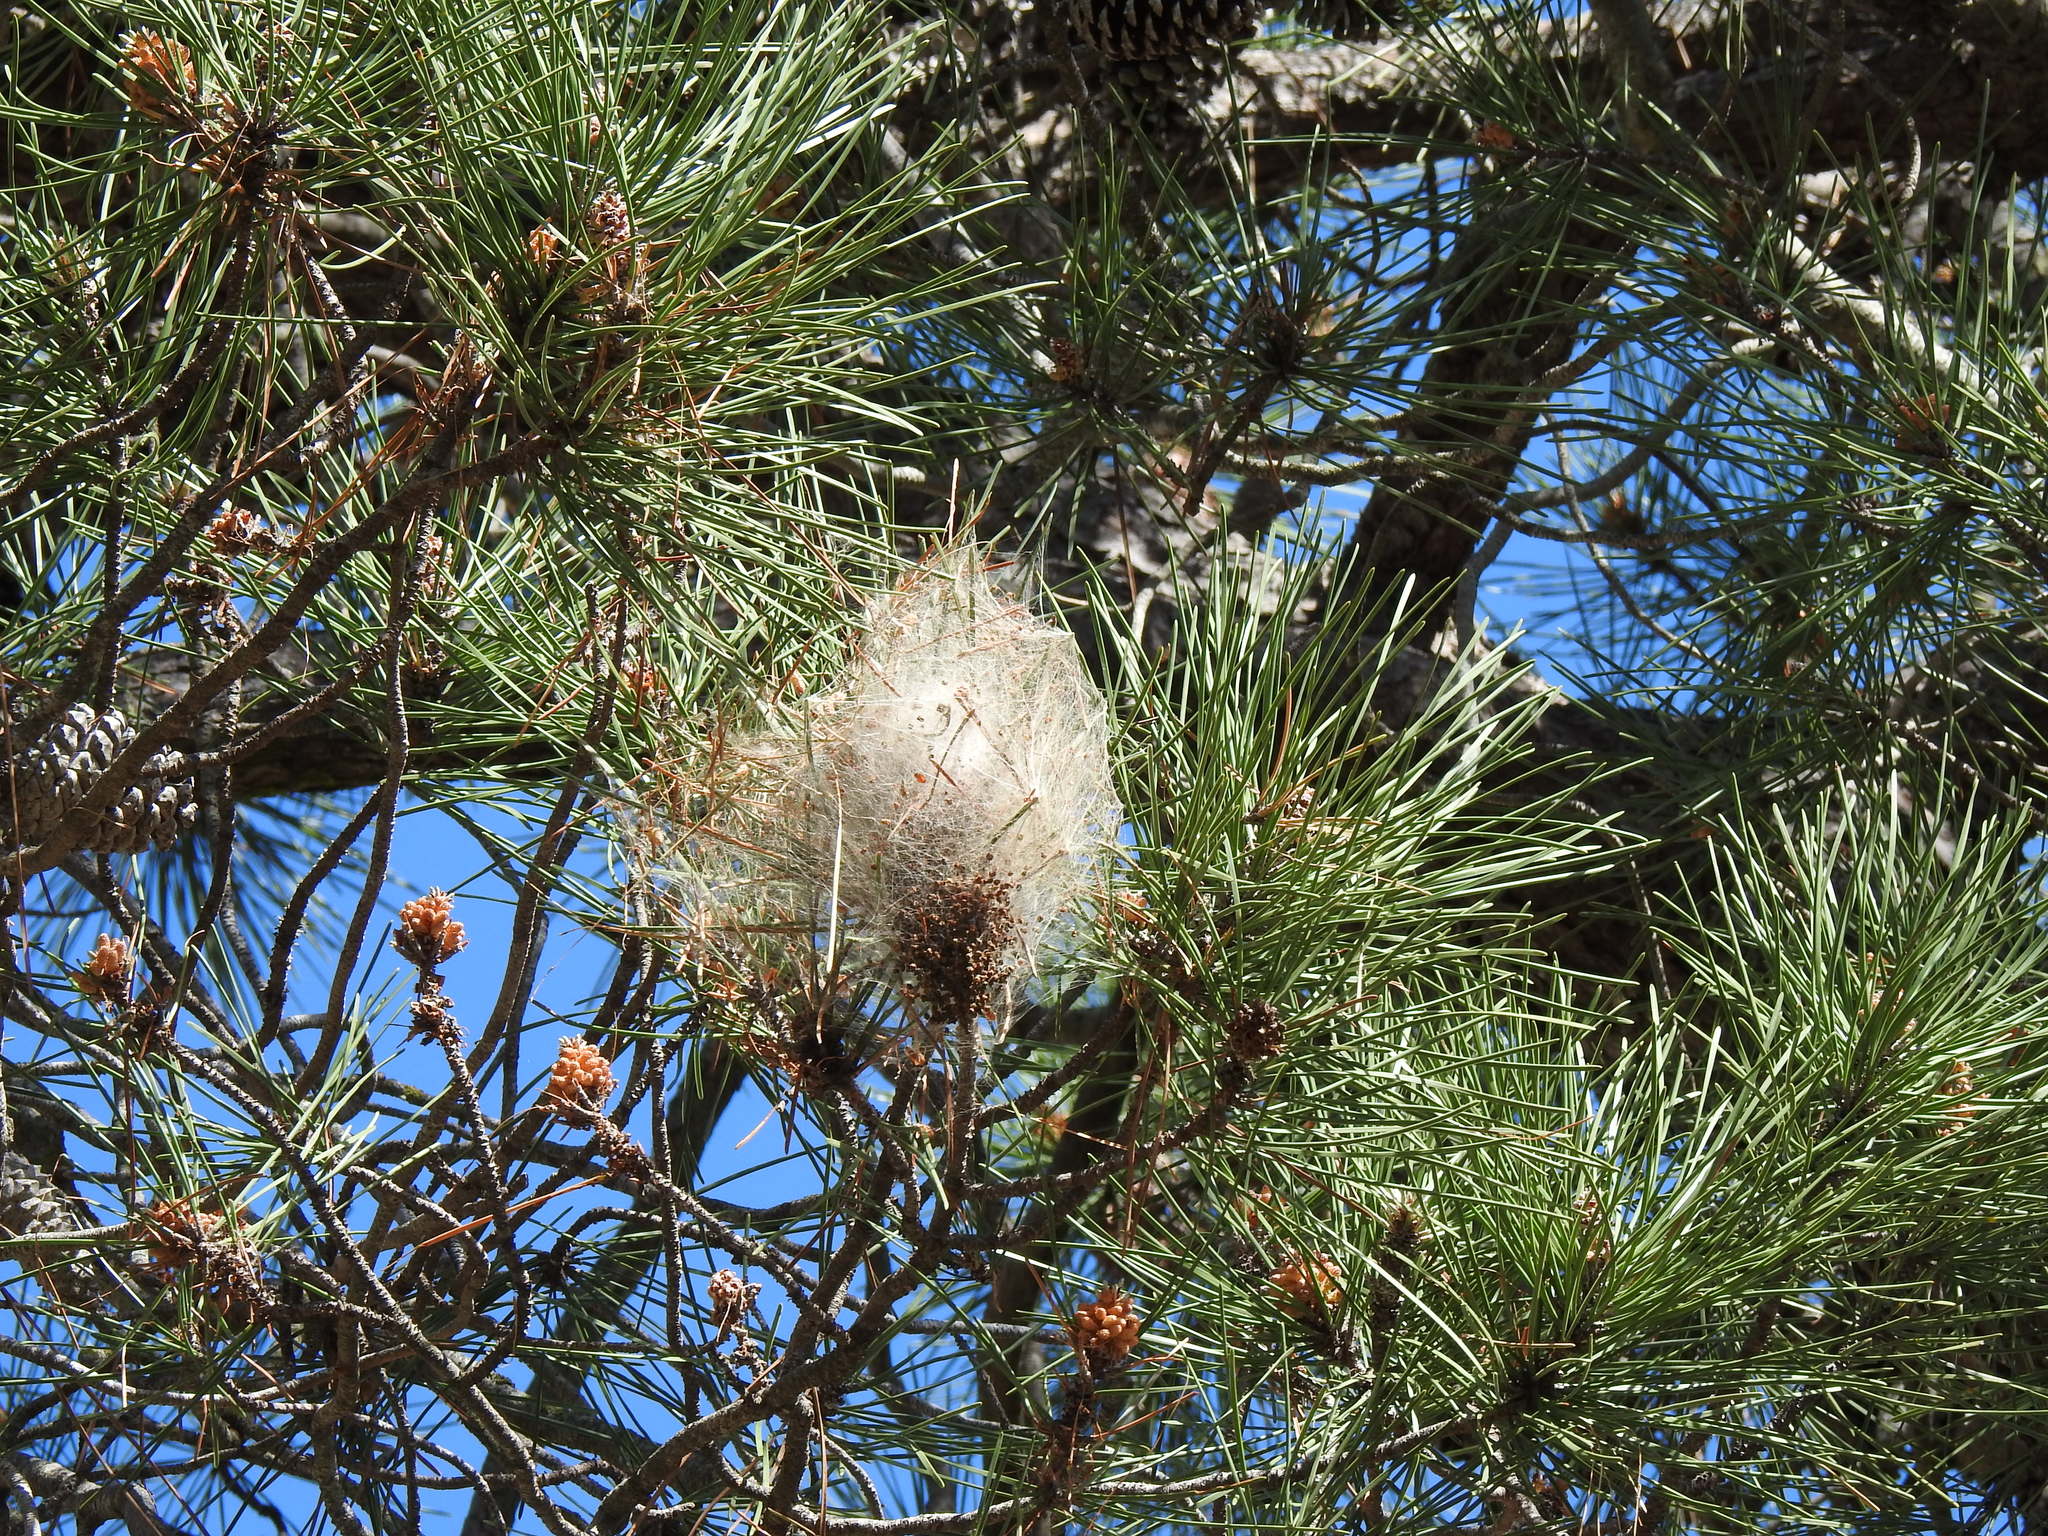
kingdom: Animalia
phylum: Arthropoda
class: Insecta
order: Lepidoptera
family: Notodontidae
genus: Thaumetopoea
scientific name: Thaumetopoea pityocampa
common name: Pine processionary
